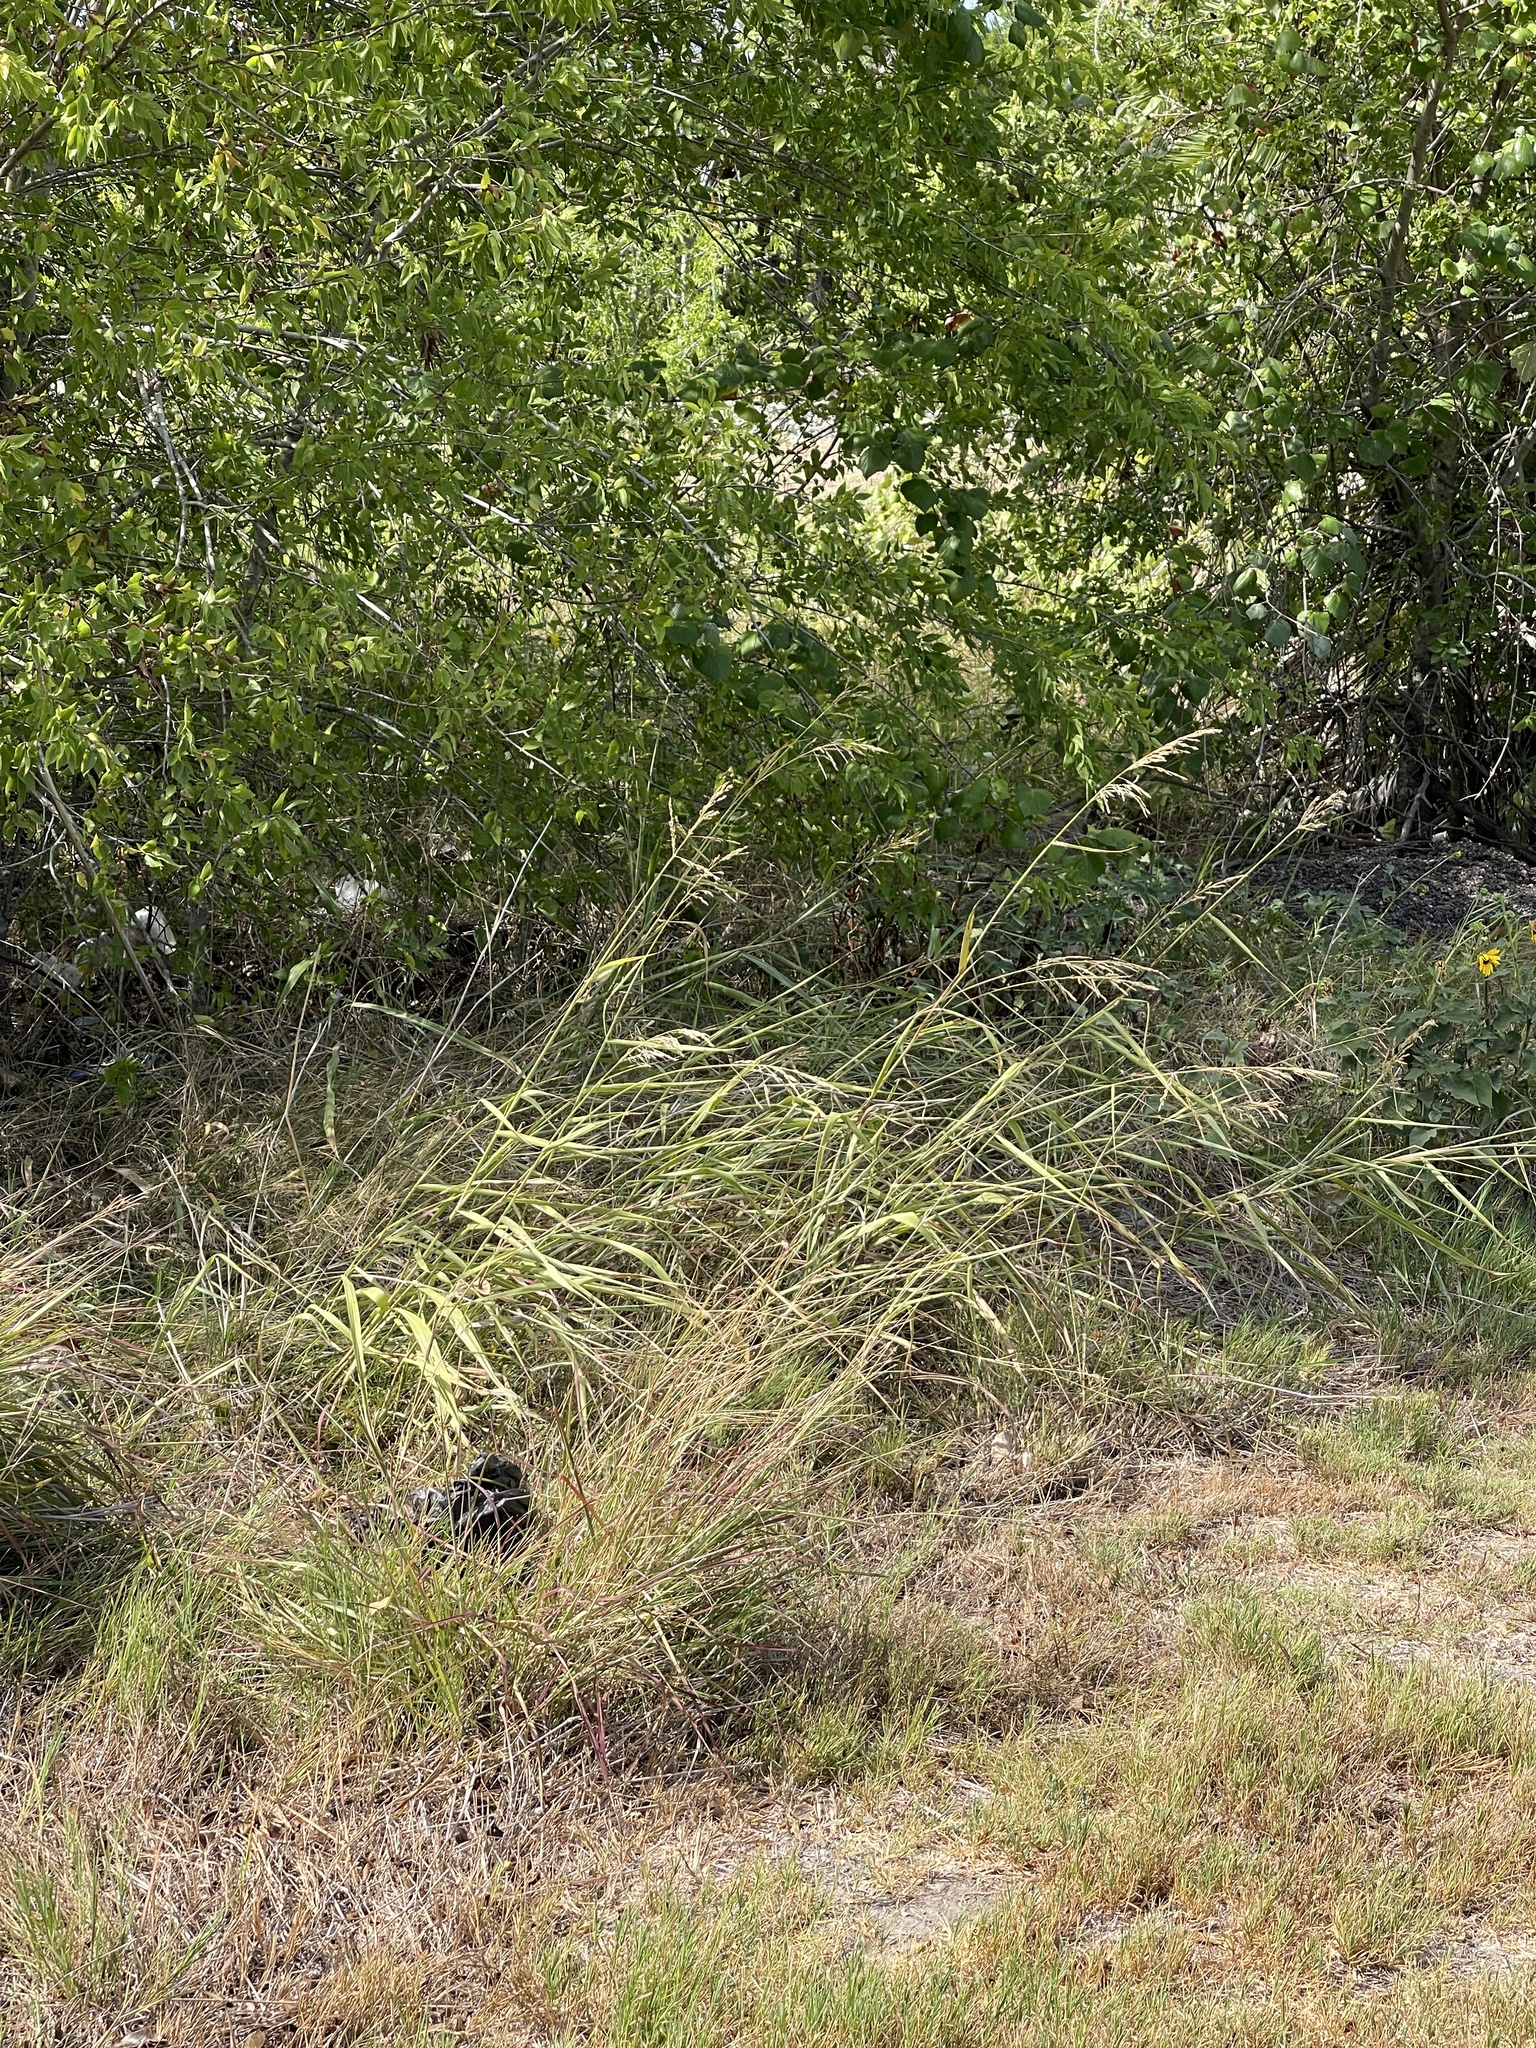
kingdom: Plantae
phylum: Tracheophyta
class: Liliopsida
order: Poales
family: Poaceae
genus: Sorghum
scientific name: Sorghum halepense
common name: Johnson-grass
